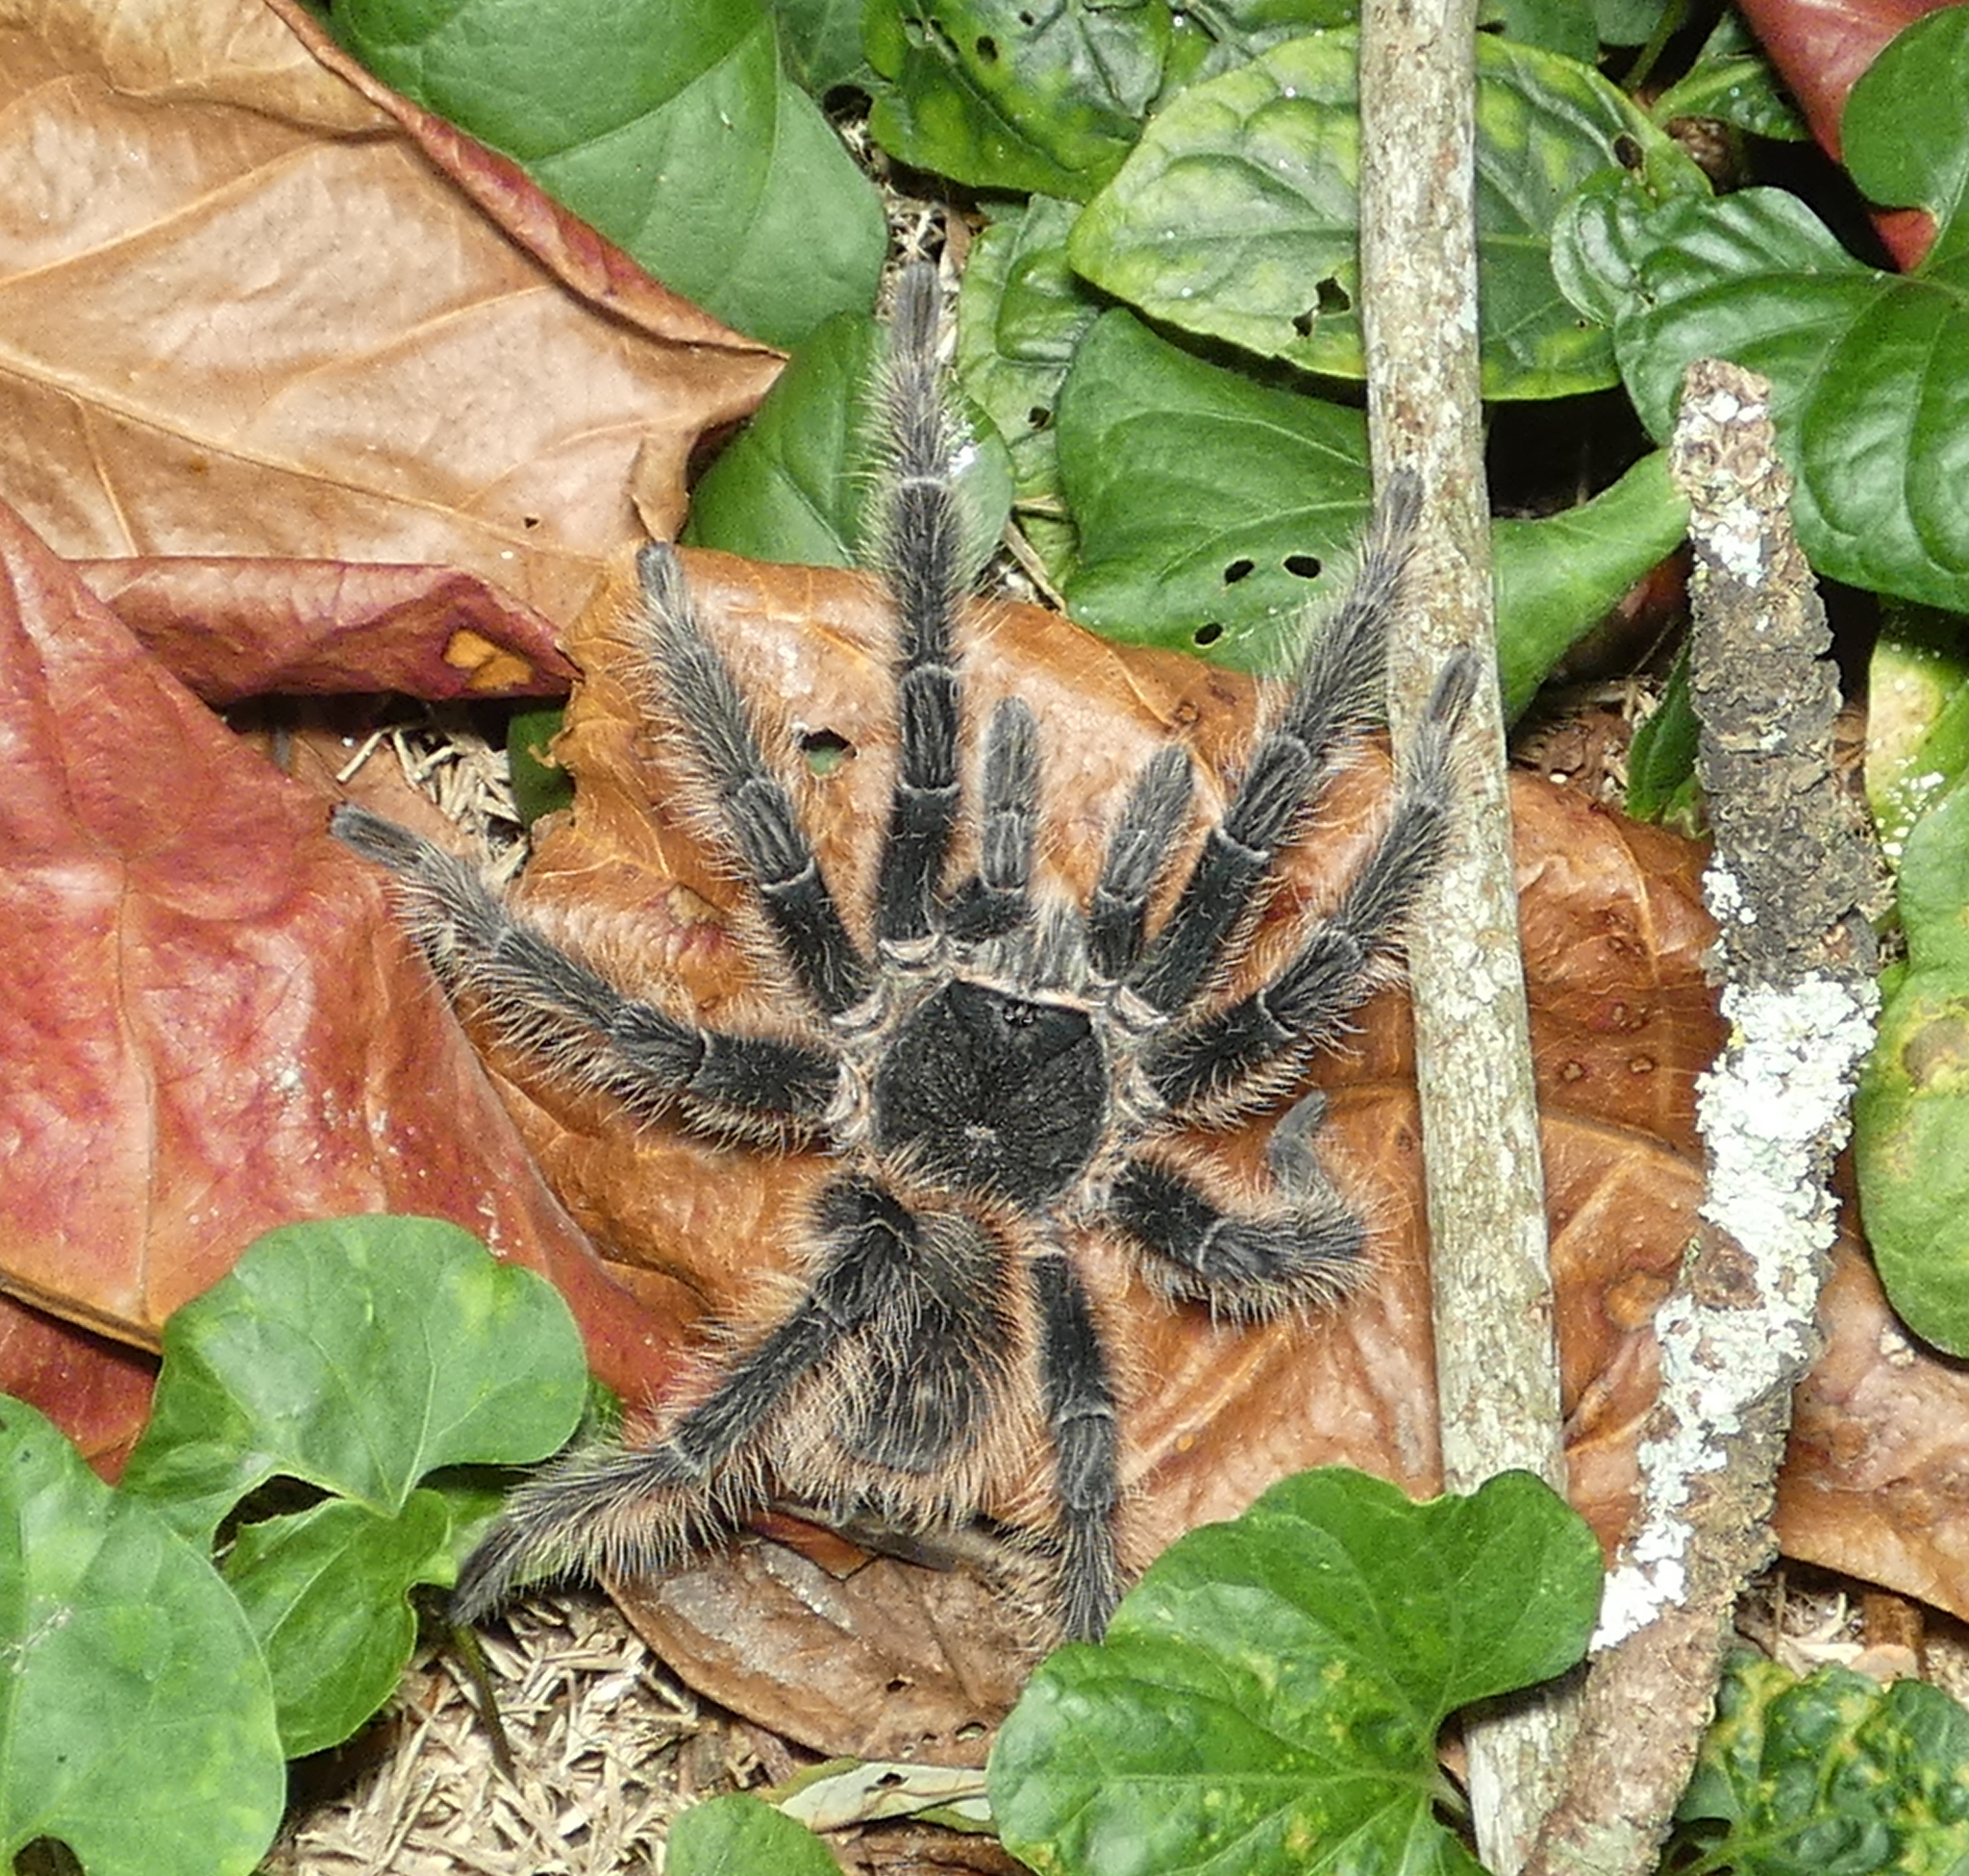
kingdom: Animalia
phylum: Arthropoda
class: Arachnida
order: Araneae
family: Theraphosidae
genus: Lasiodora
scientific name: Lasiodora parahybana
